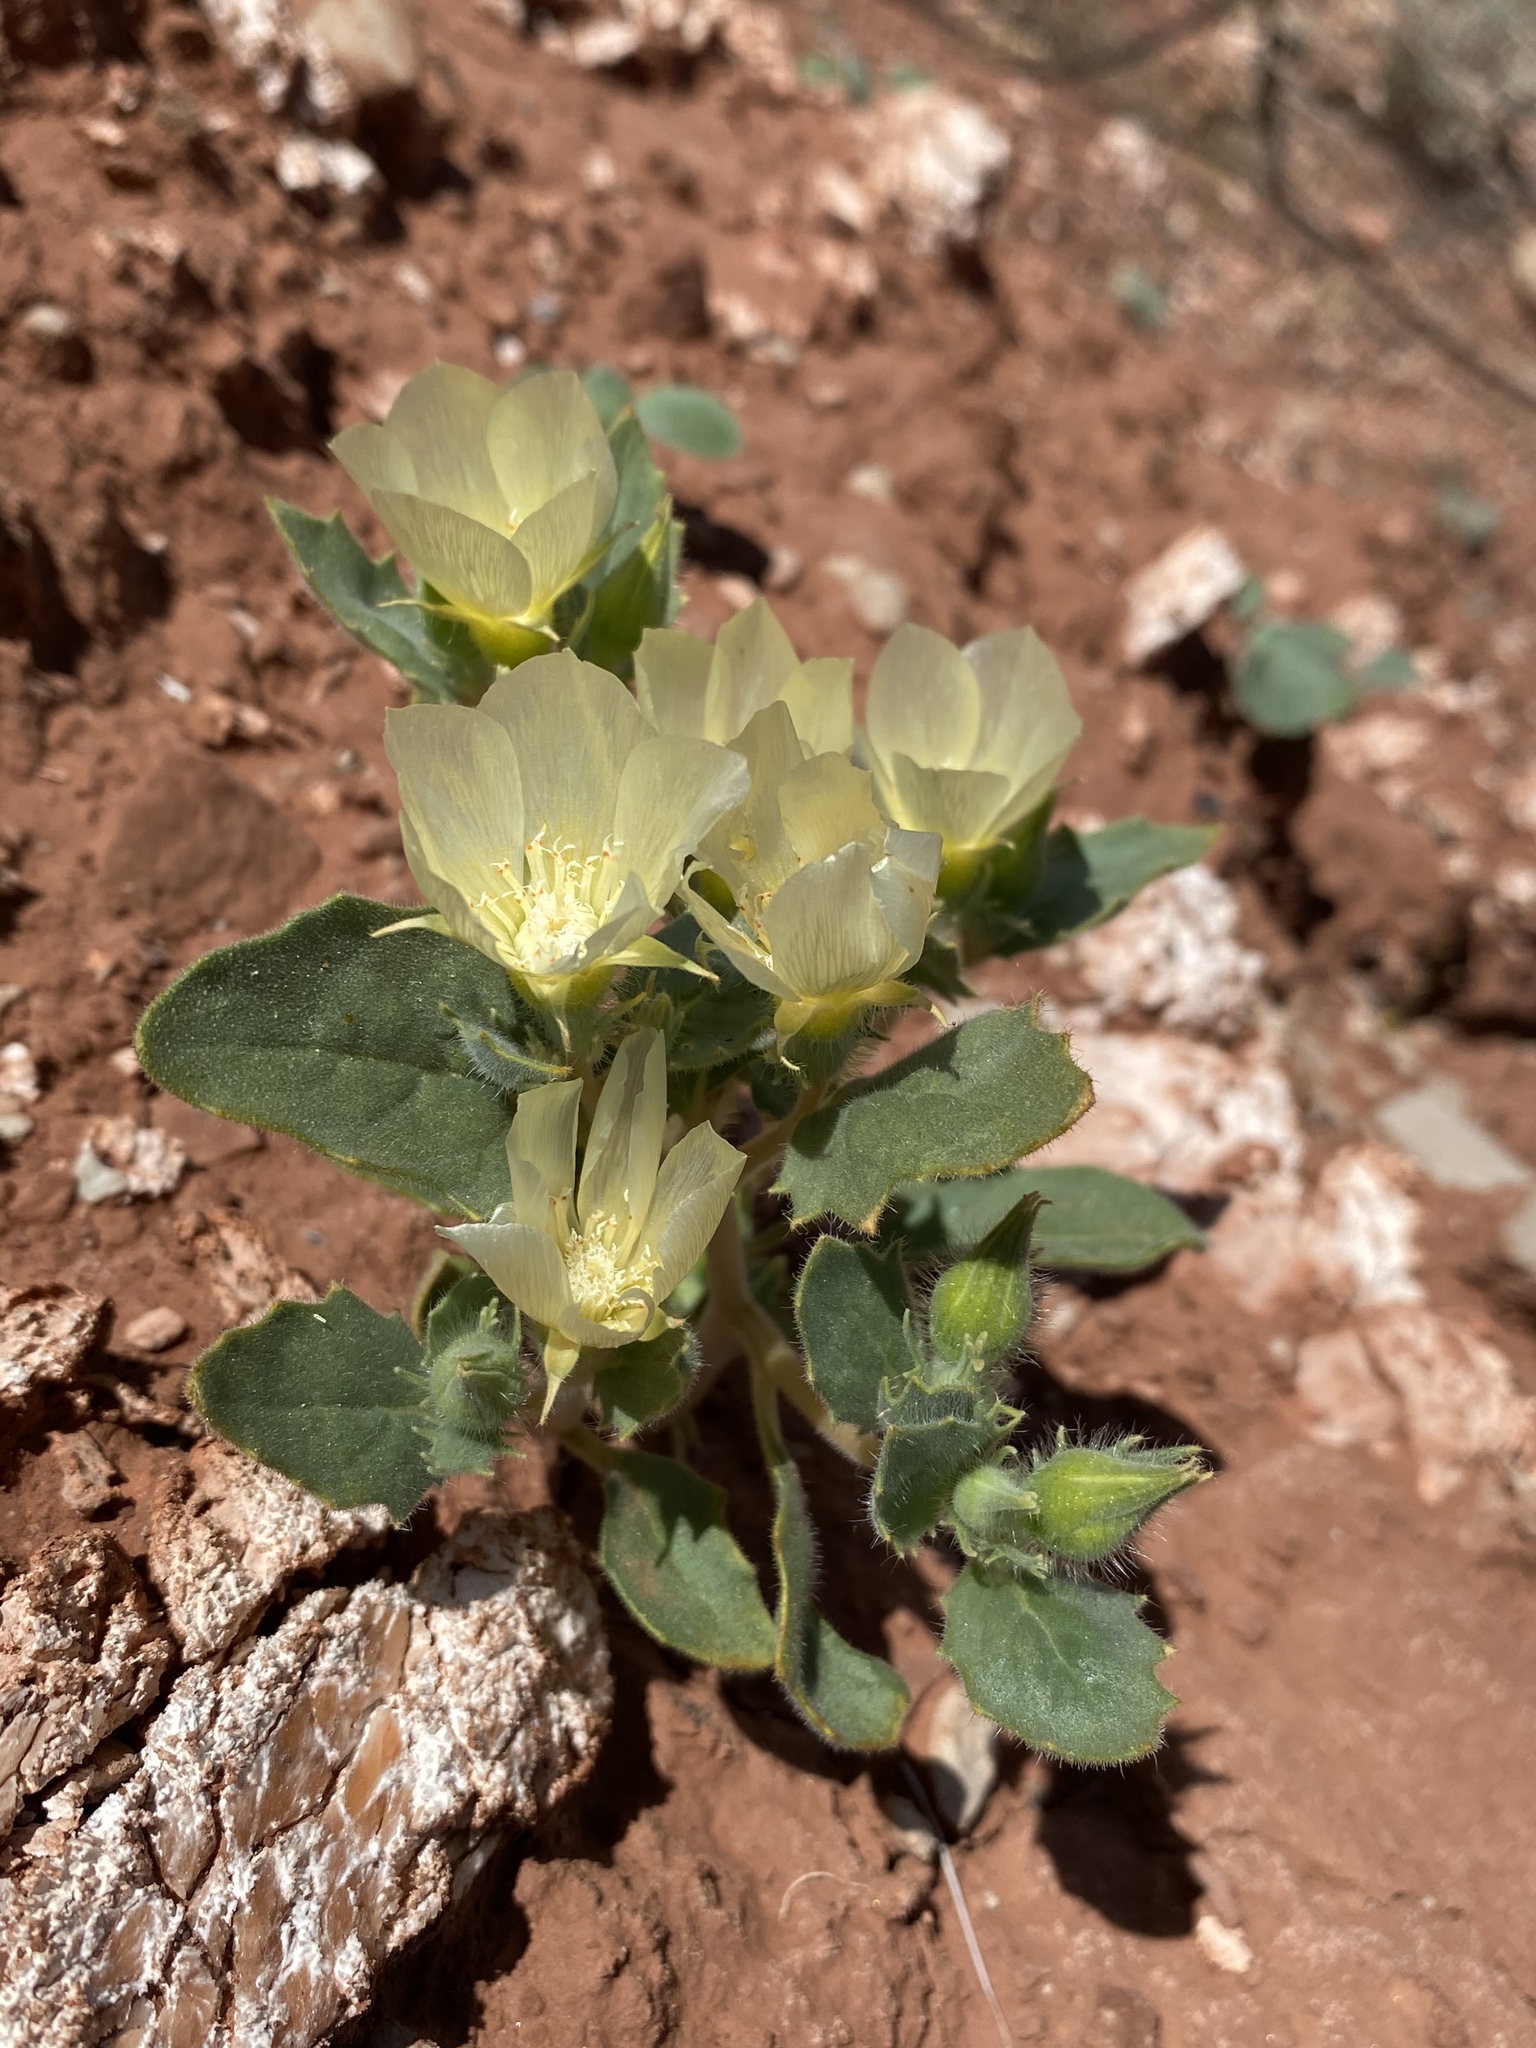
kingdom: Plantae
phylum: Tracheophyta
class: Magnoliopsida
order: Cornales
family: Loasaceae
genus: Mentzelia
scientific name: Mentzelia tricuspis
